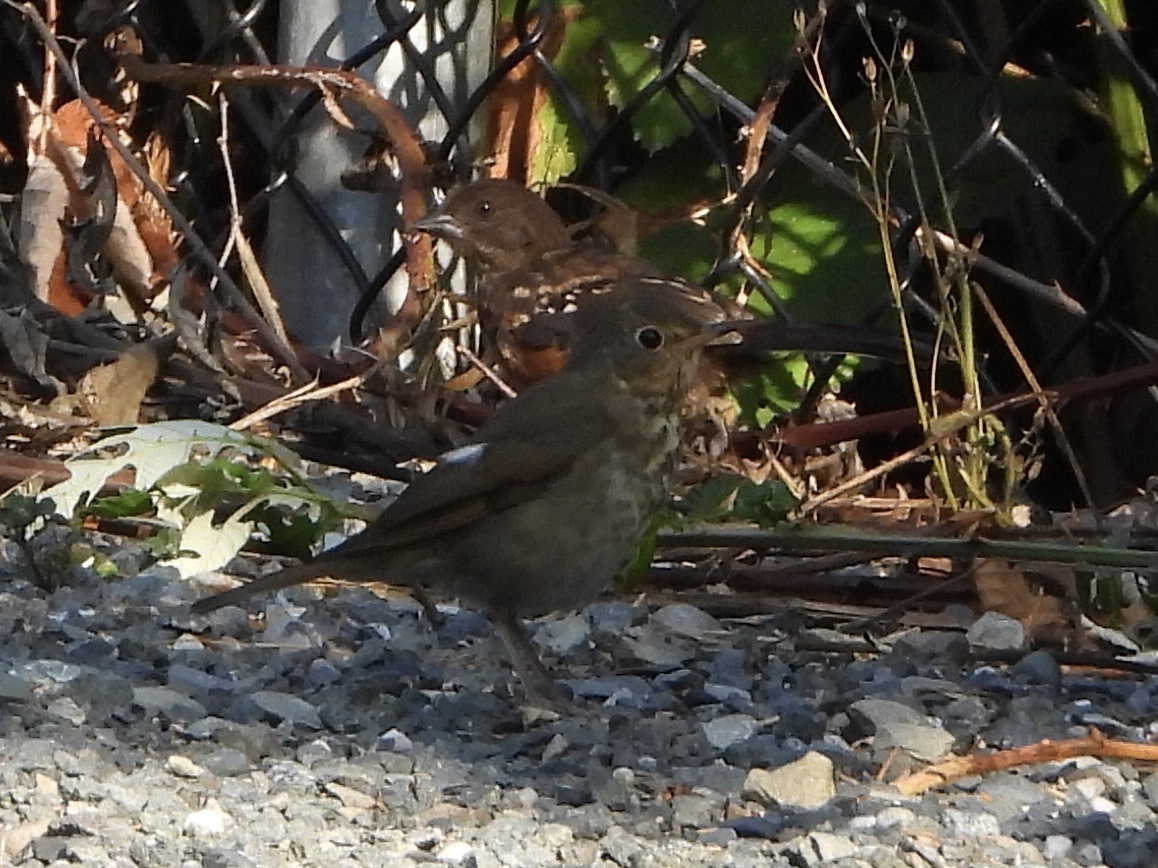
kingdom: Animalia
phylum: Chordata
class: Aves
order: Passeriformes
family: Turdidae
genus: Catharus
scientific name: Catharus ustulatus
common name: Swainson's thrush
